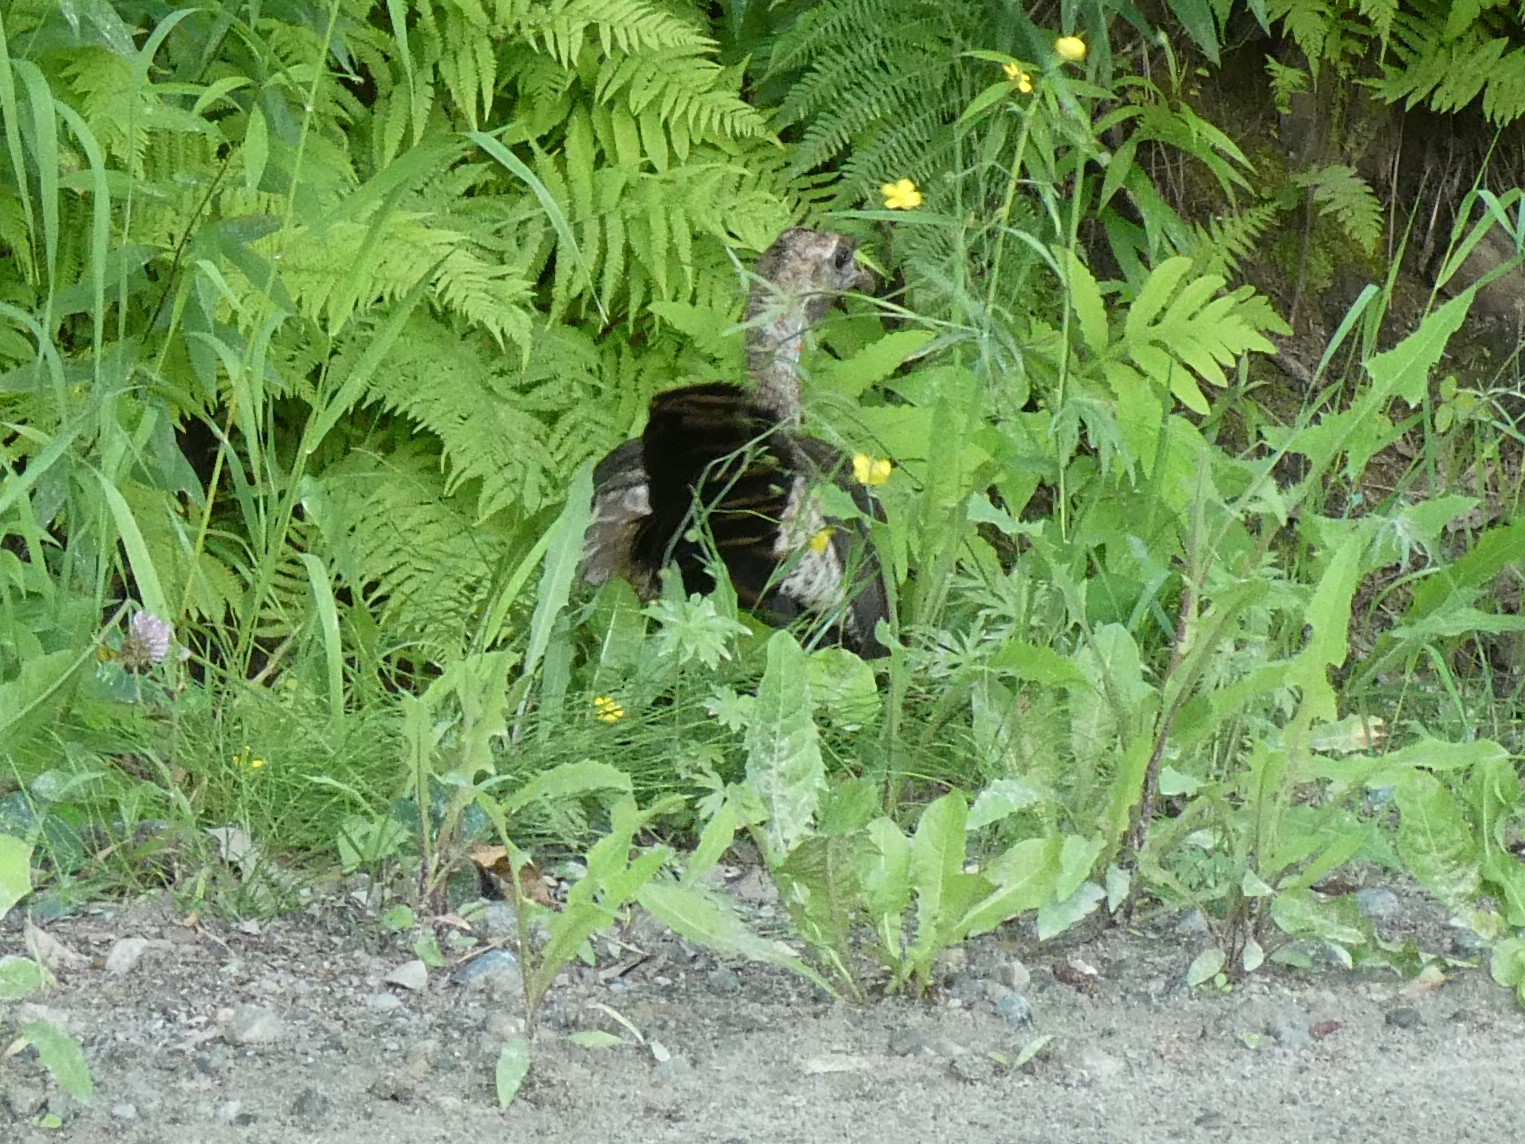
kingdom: Animalia
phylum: Chordata
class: Aves
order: Galliformes
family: Phasianidae
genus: Meleagris
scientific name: Meleagris gallopavo
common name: Wild turkey
